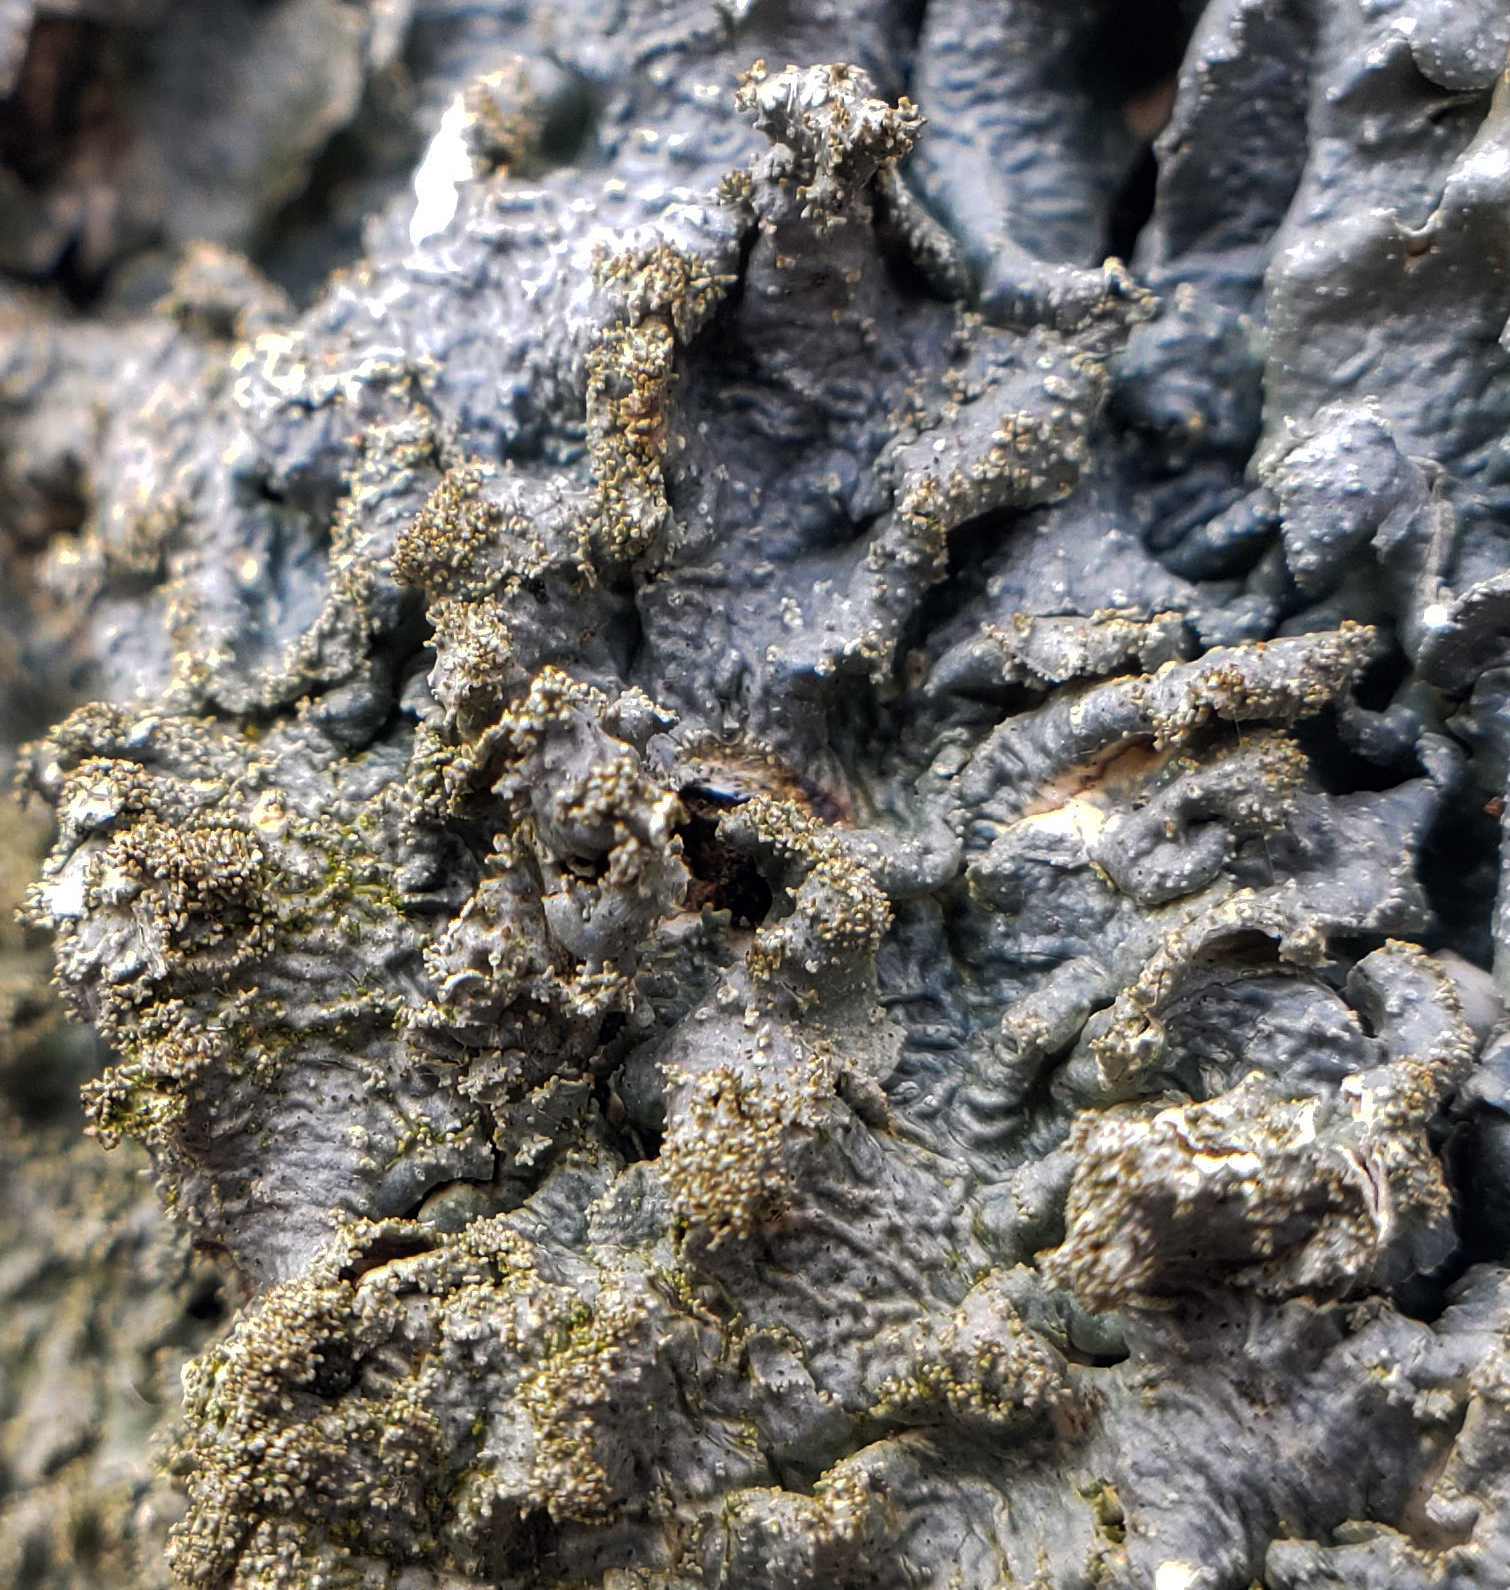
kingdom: Fungi
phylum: Ascomycota
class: Lecanoromycetes
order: Lecanorales
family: Parmeliaceae
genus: Punctelia
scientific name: Punctelia rudecta
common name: Rough speckled shield lichen
